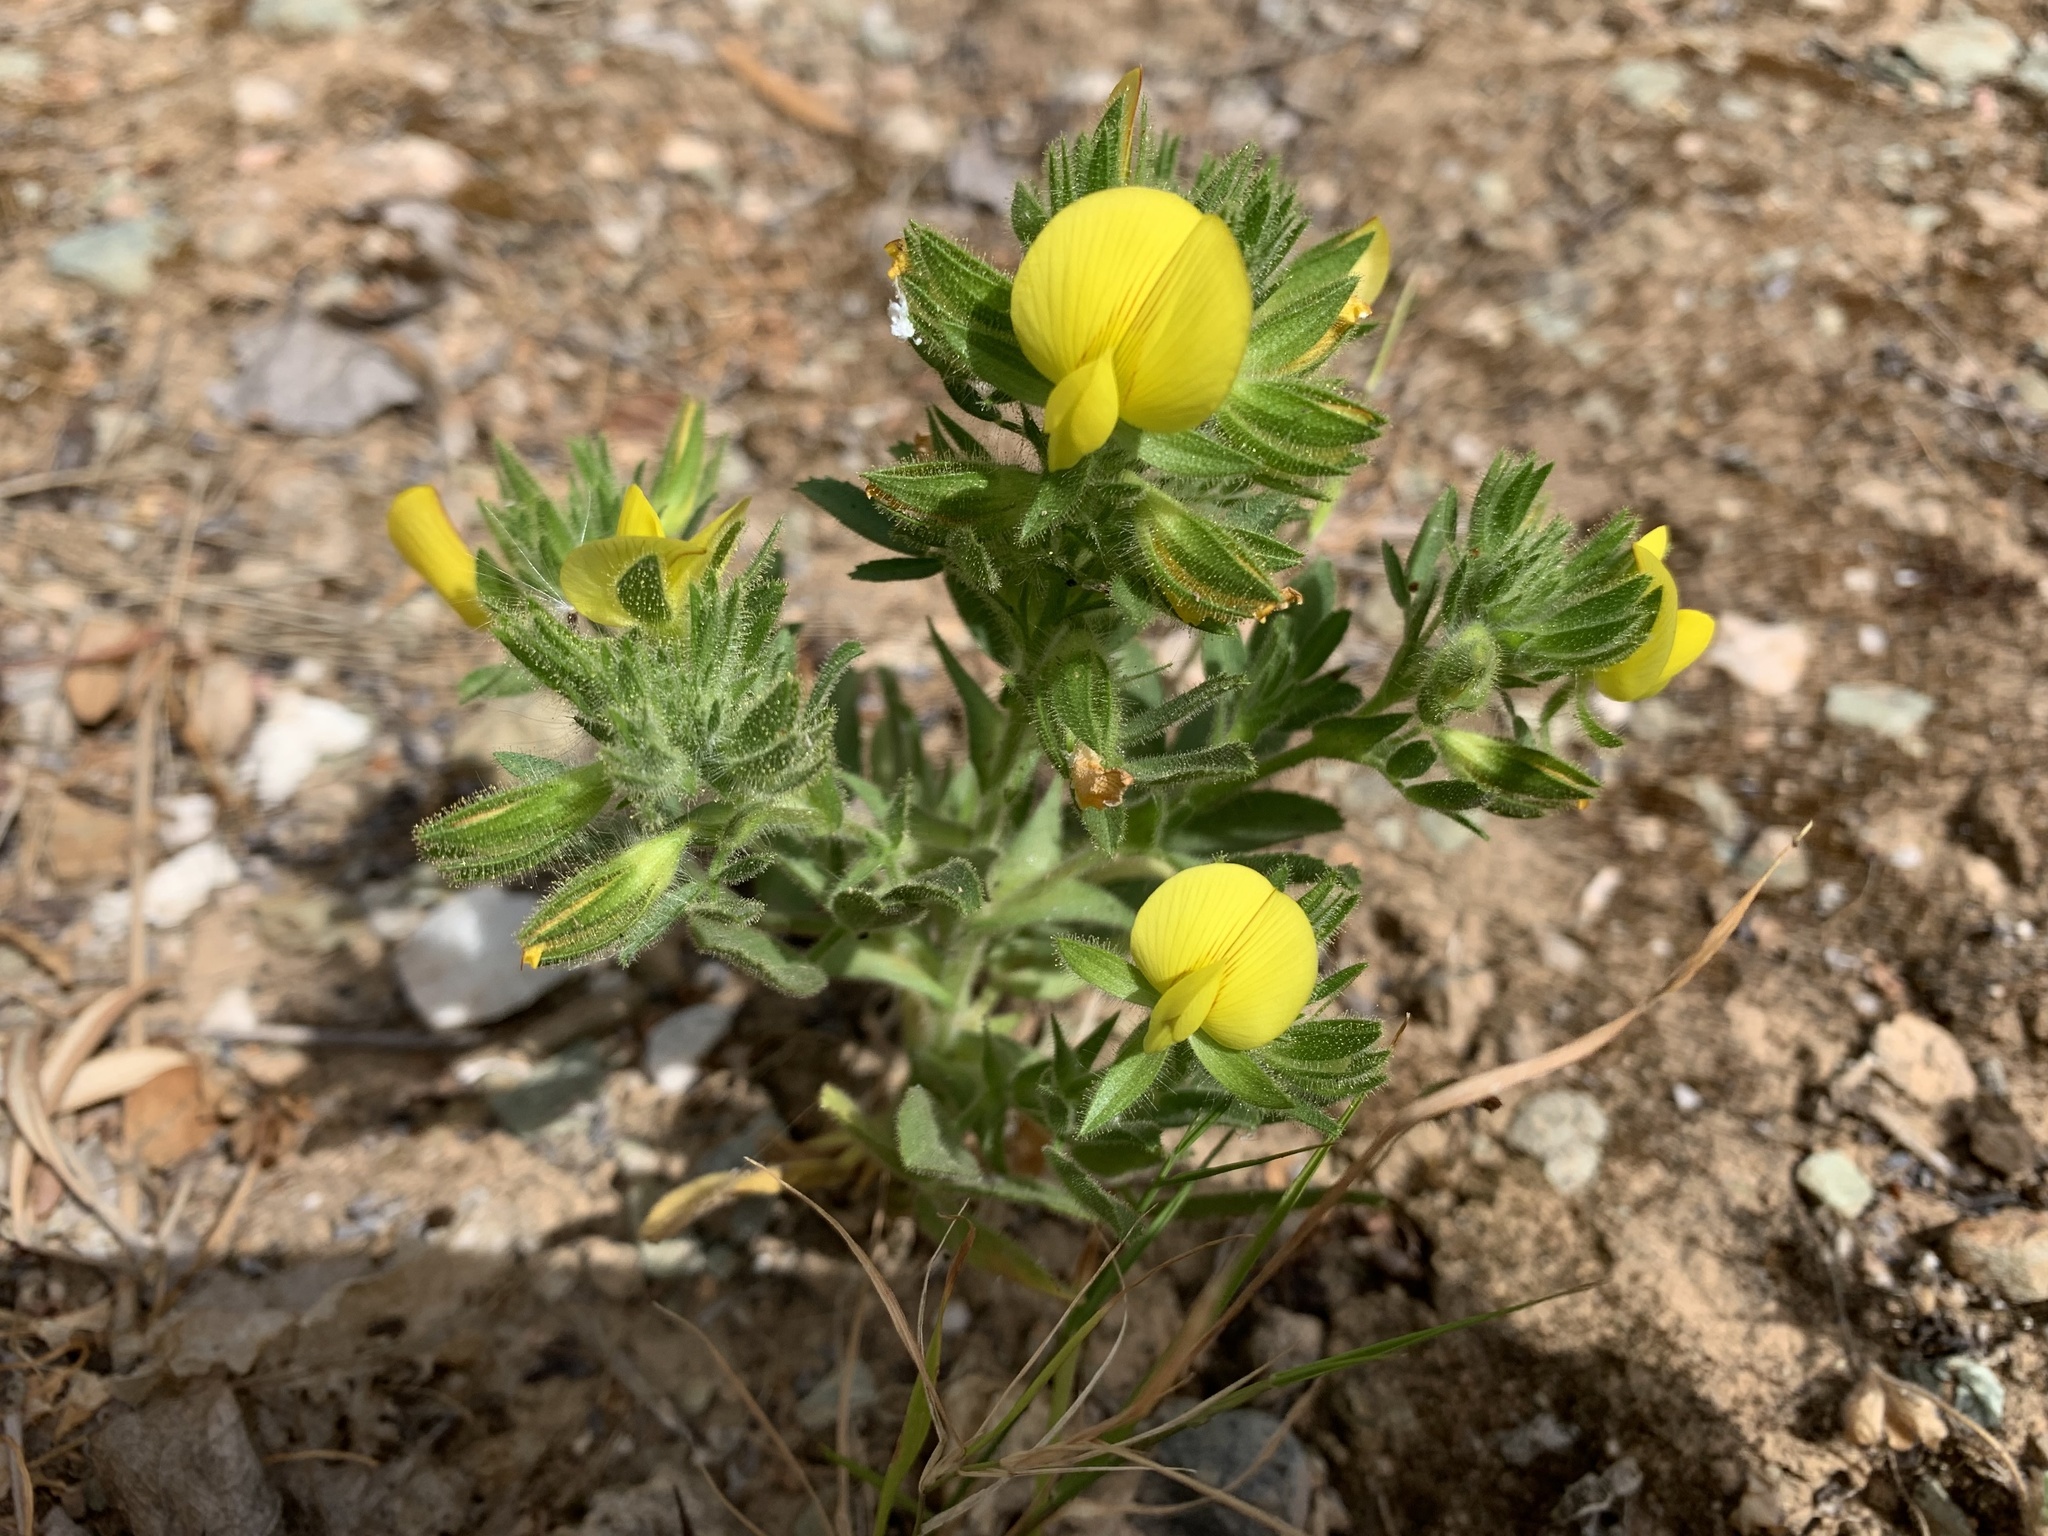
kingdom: Plantae
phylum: Tracheophyta
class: Magnoliopsida
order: Fabales
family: Fabaceae
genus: Ononis
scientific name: Ononis pubescens
